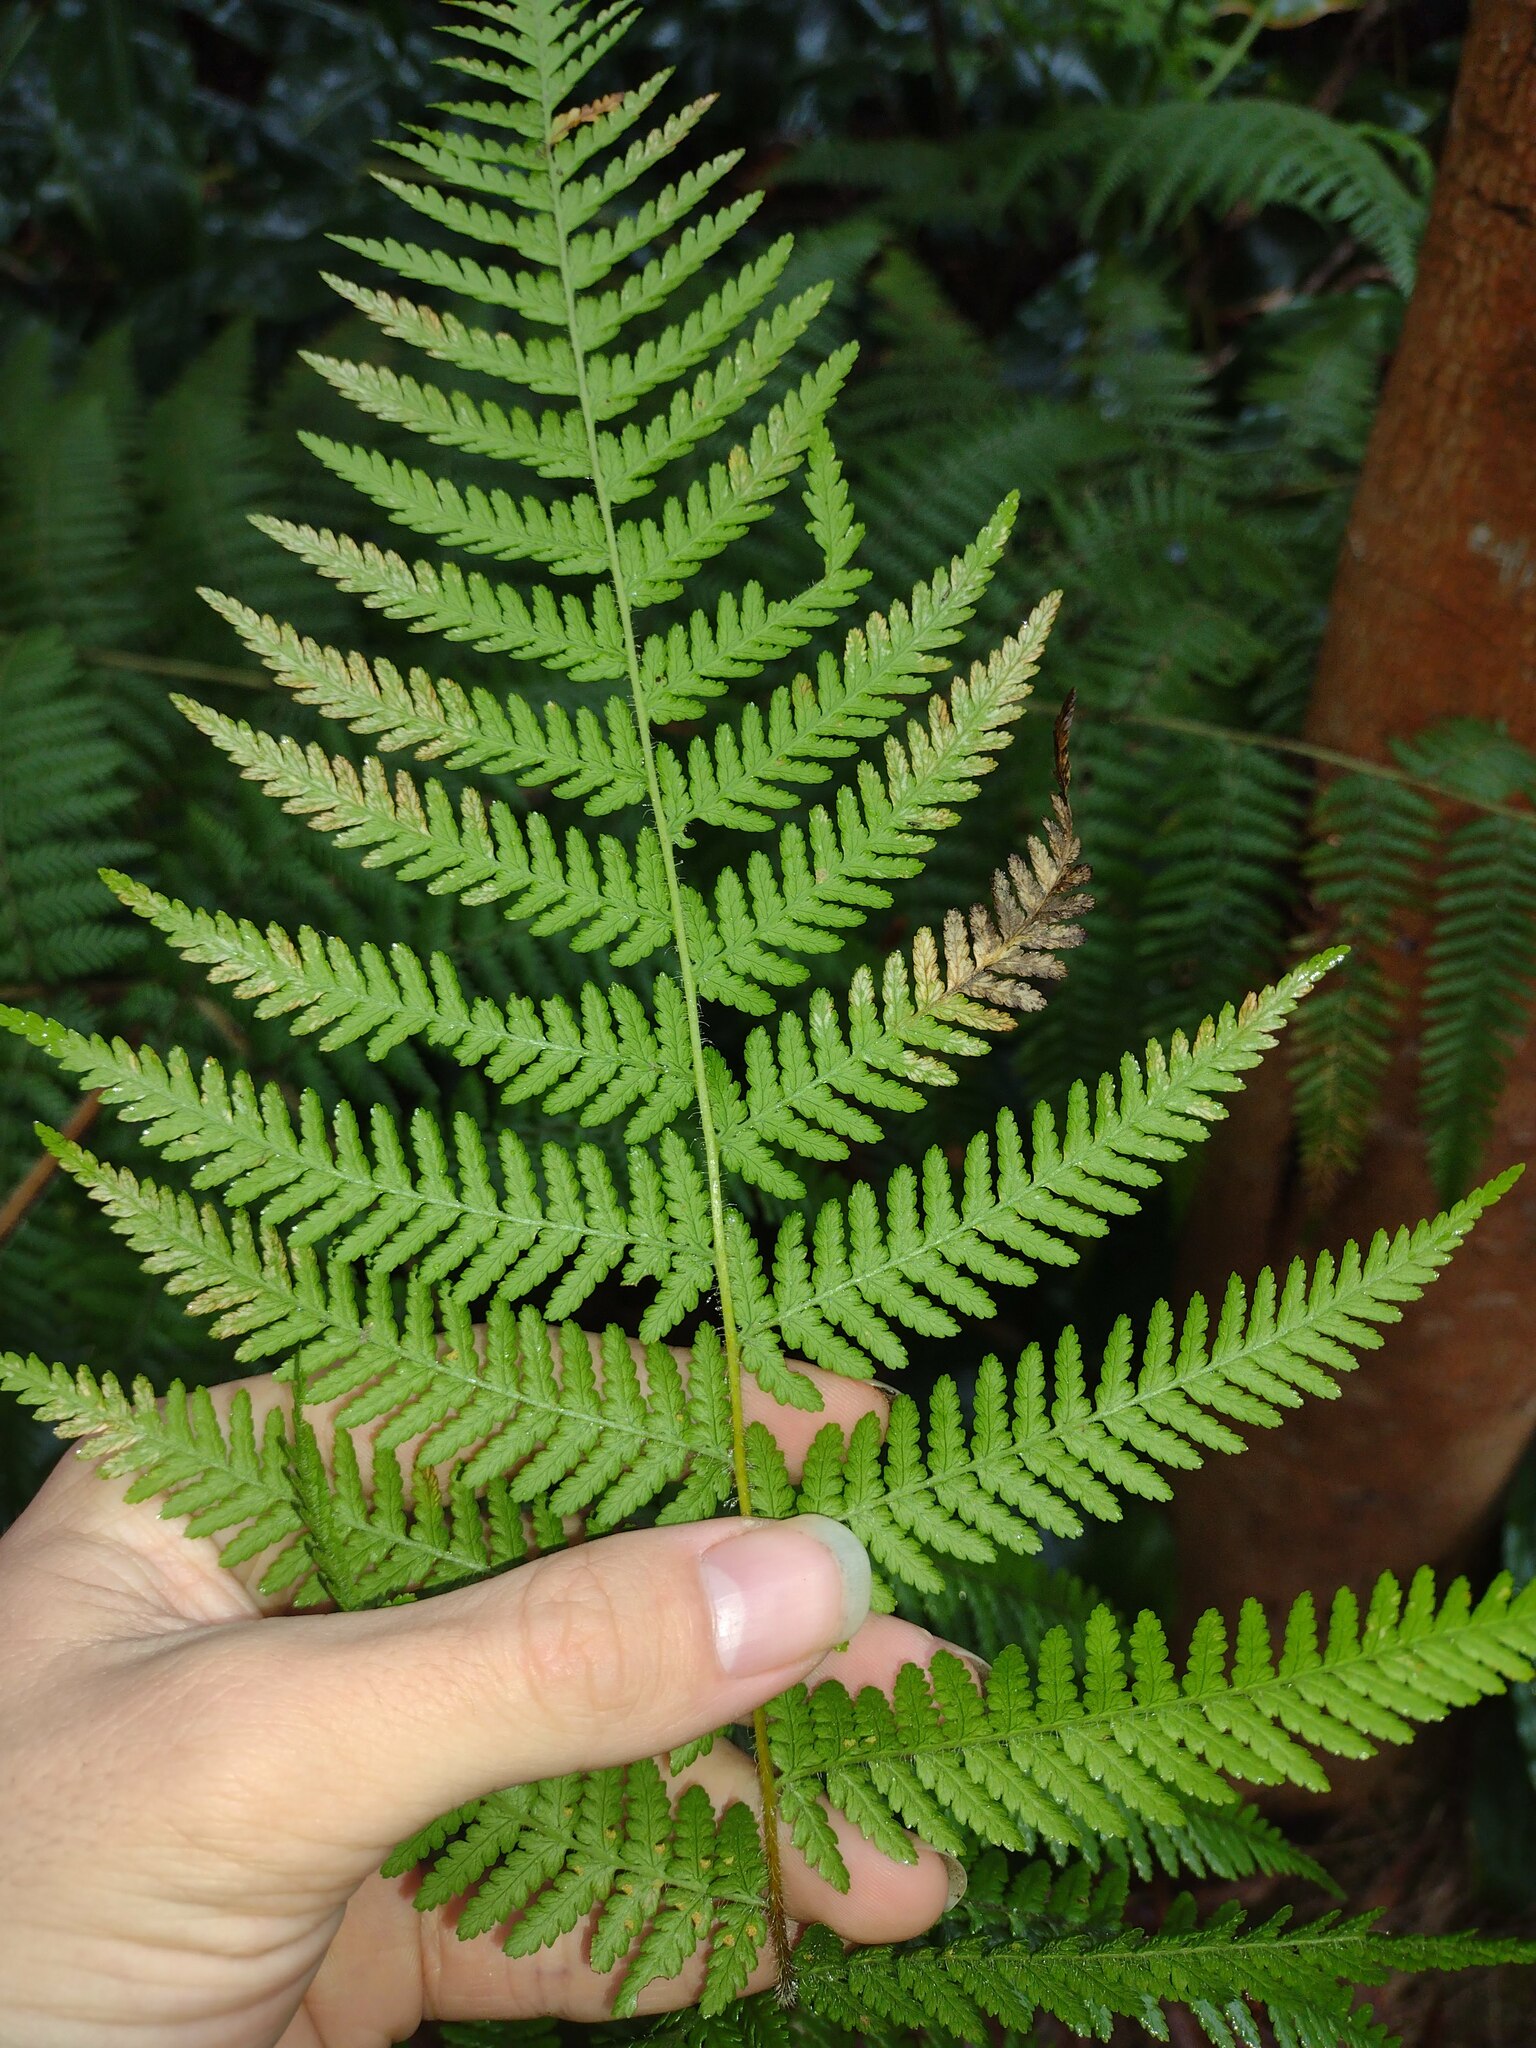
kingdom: Plantae
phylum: Tracheophyta
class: Polypodiopsida
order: Polypodiales
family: Dennstaedtiaceae
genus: Hypolepis
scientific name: Hypolepis dicksonioides
